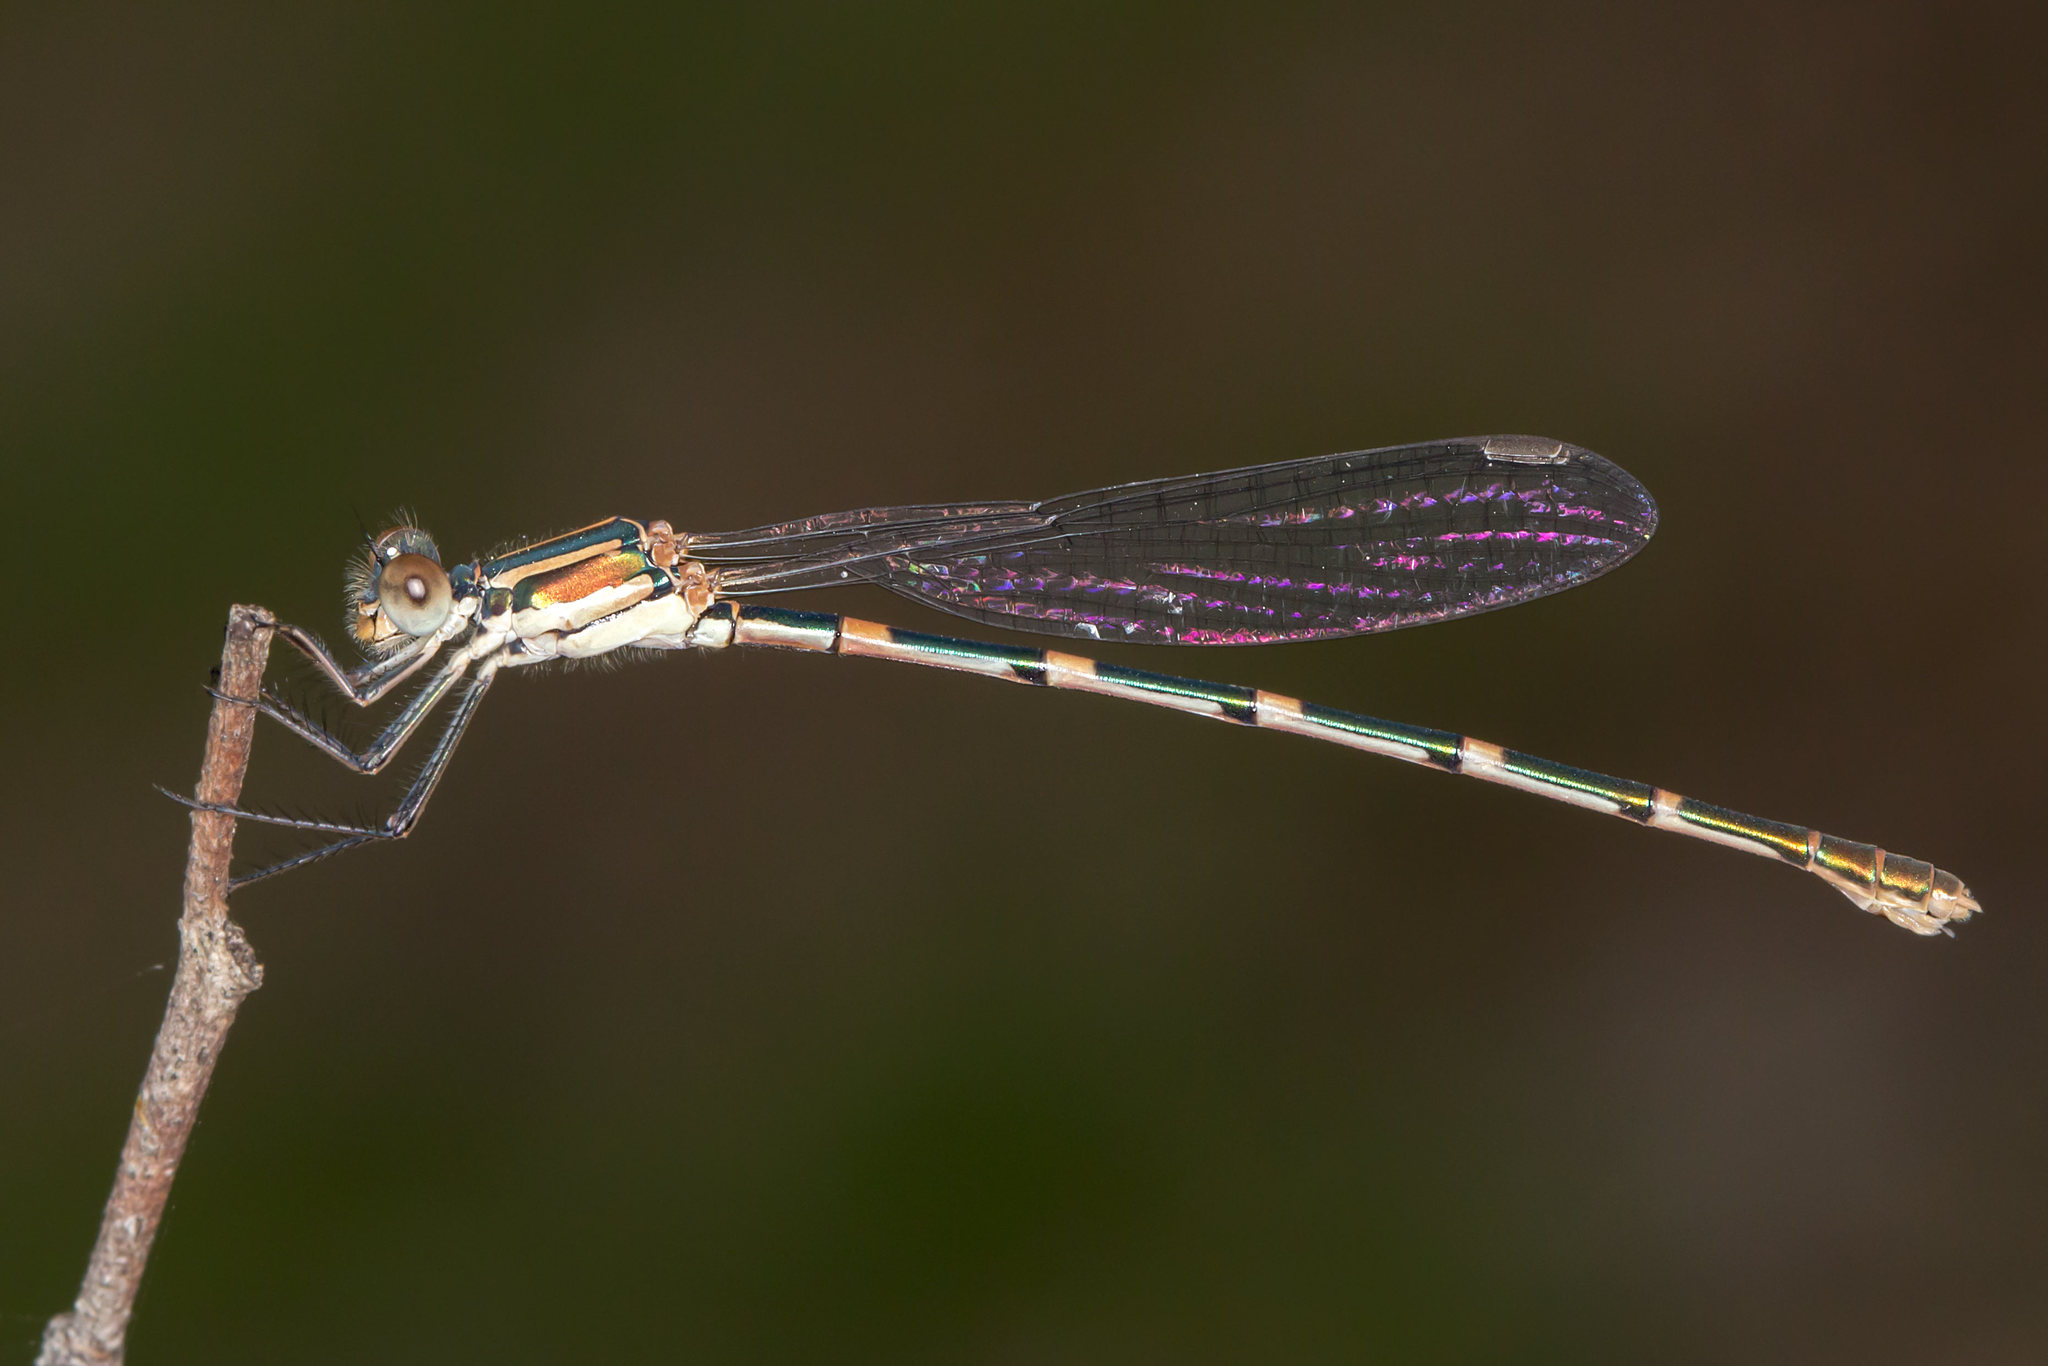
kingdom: Animalia
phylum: Arthropoda
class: Insecta
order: Odonata
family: Lestidae
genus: Austrolestes
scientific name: Austrolestes leda
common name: Wandering ringtail
